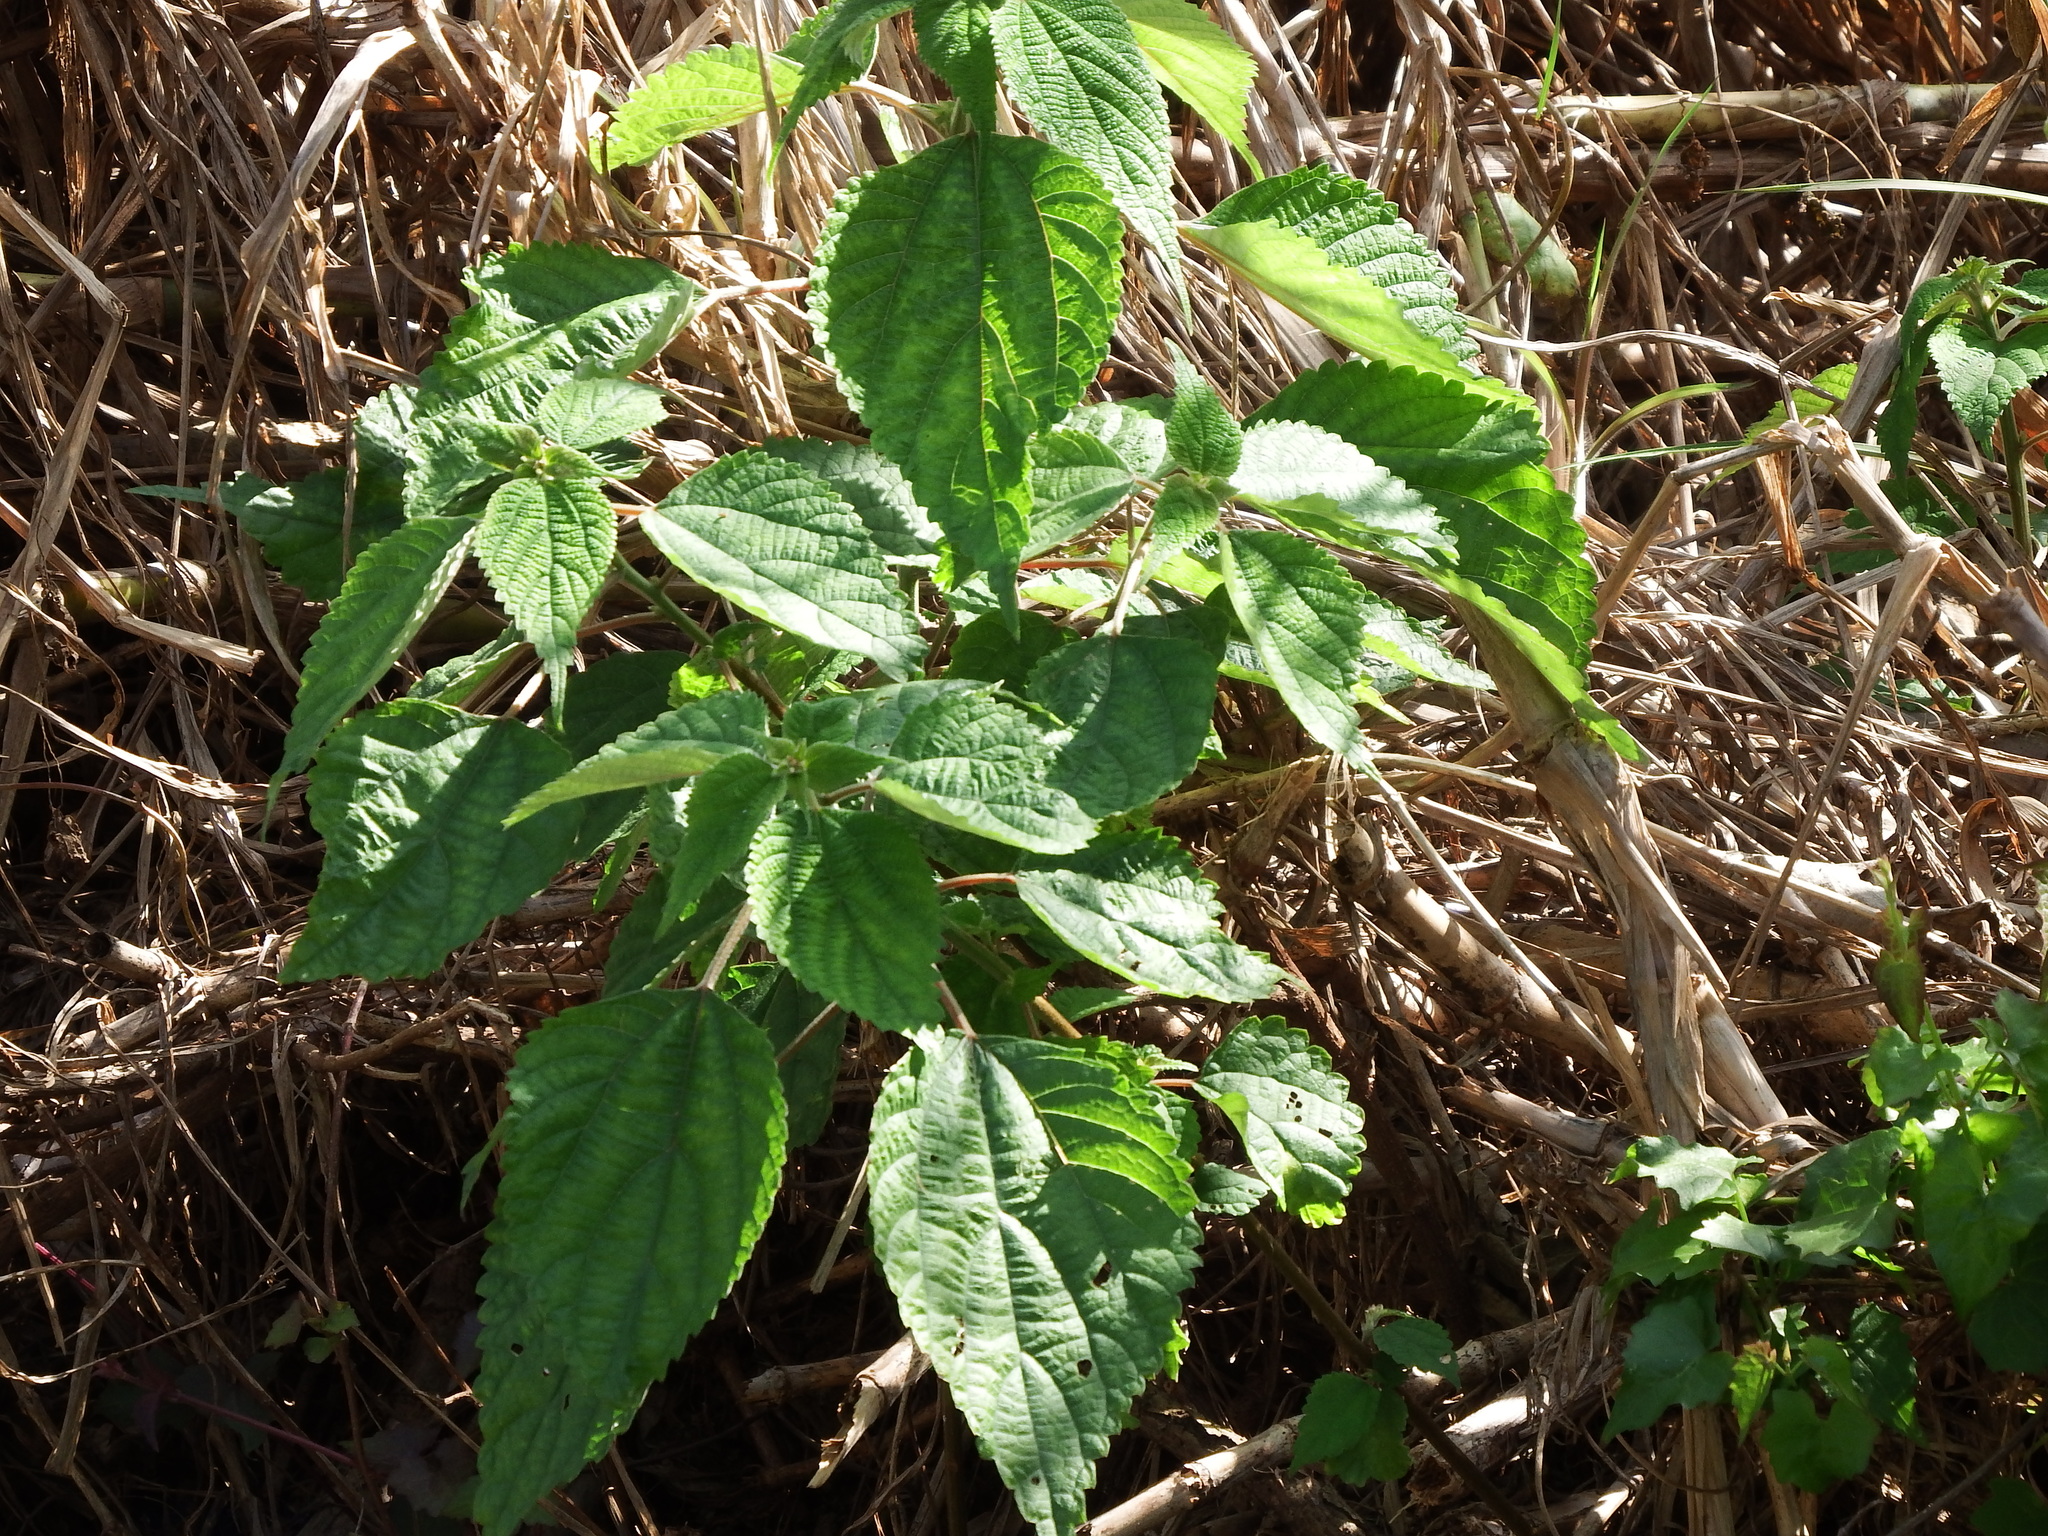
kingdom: Plantae
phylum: Tracheophyta
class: Magnoliopsida
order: Rosales
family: Urticaceae
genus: Boehmeria
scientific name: Boehmeria nivea
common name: Ramie chinese grass
